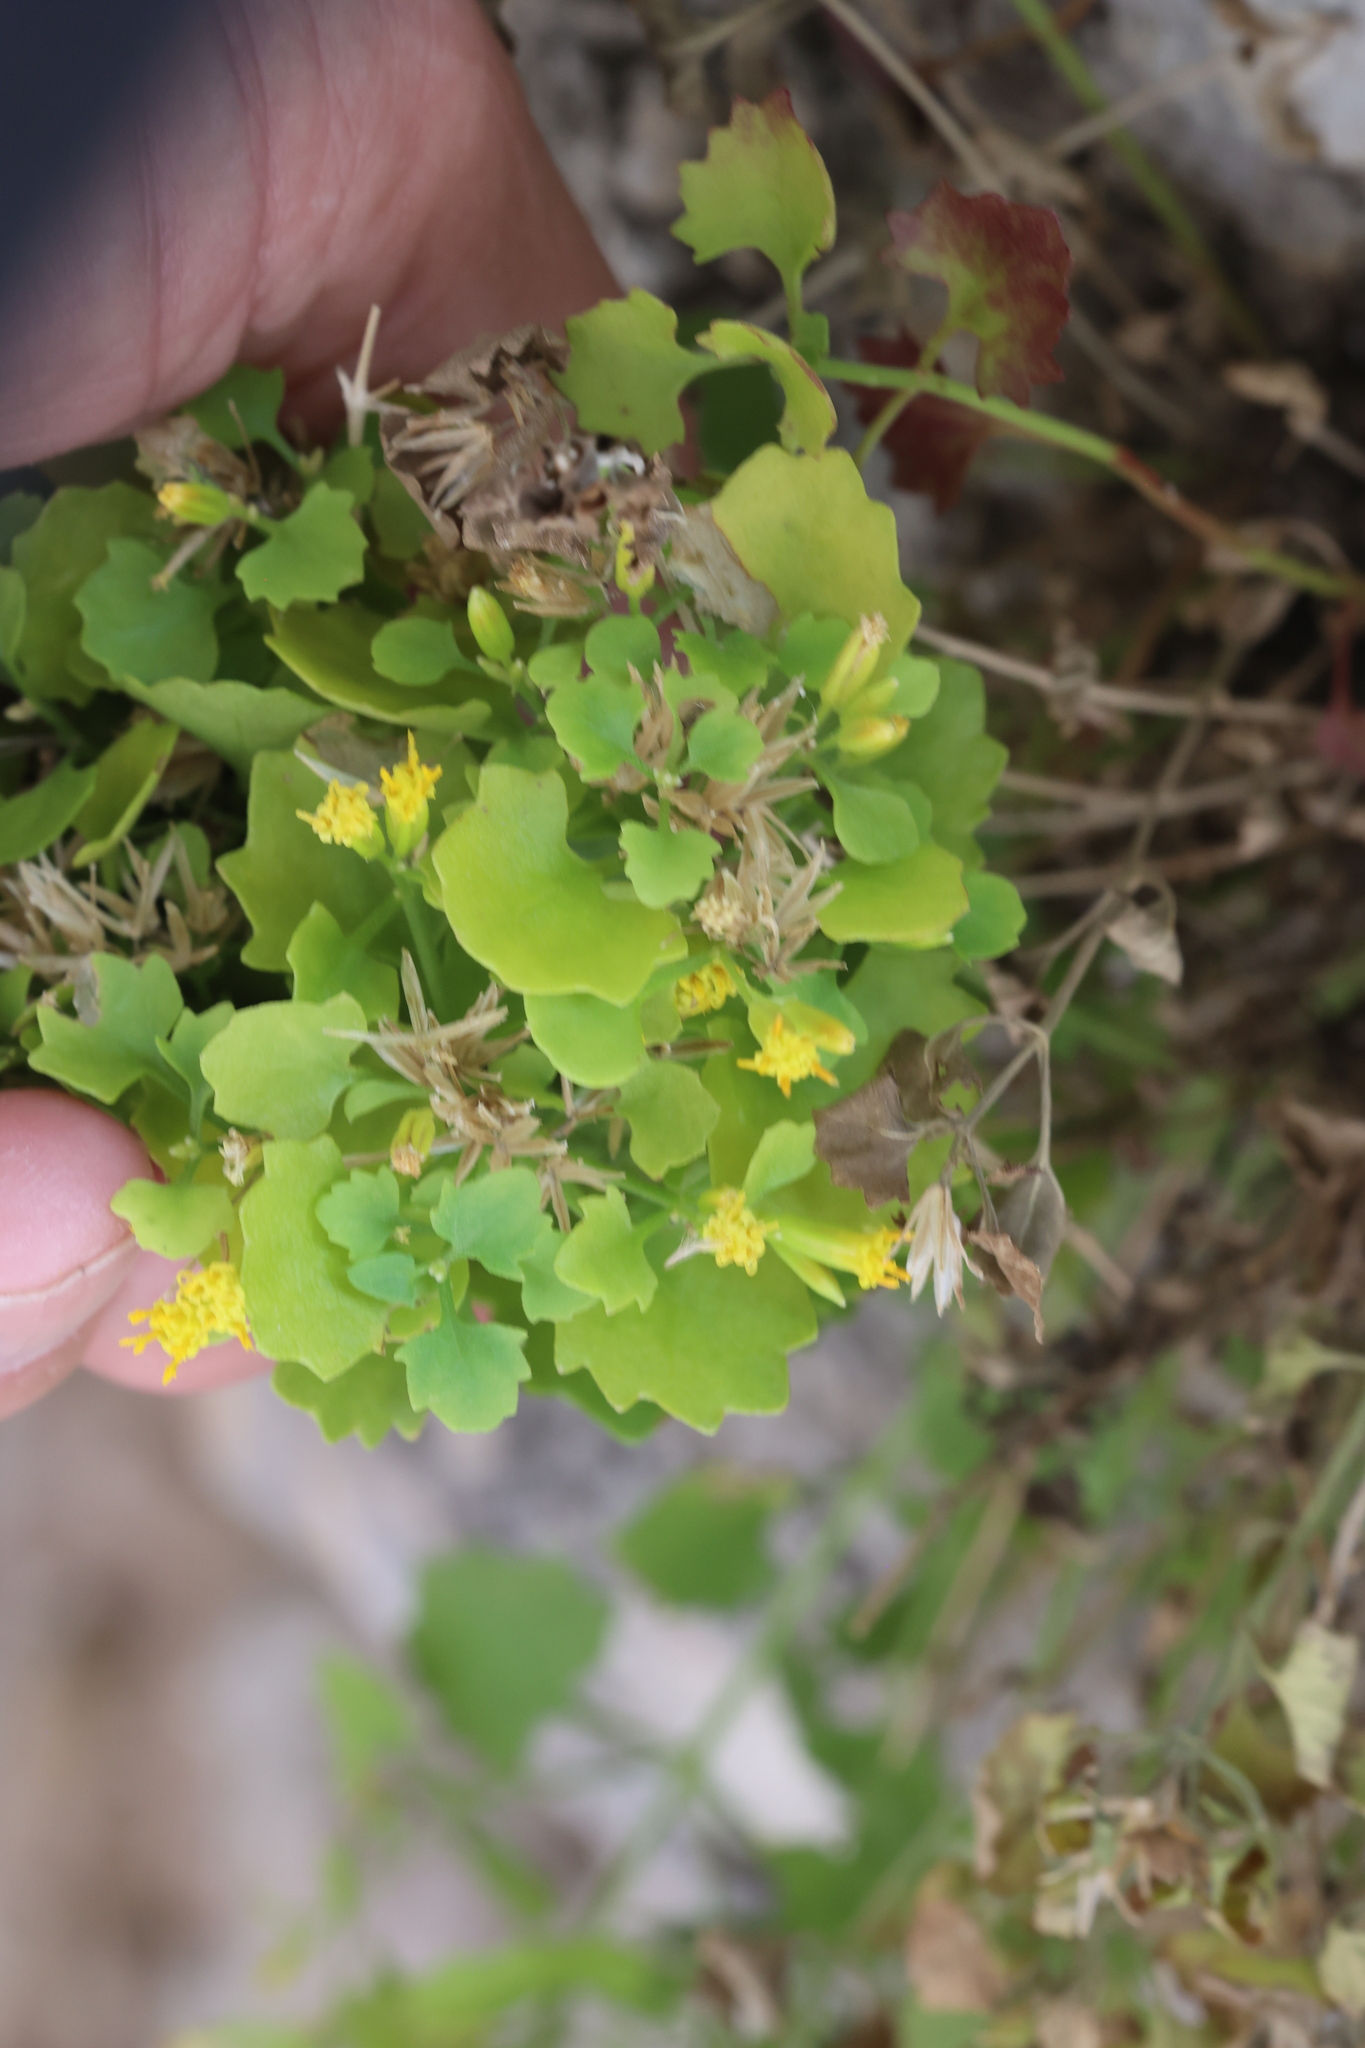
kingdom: Plantae
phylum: Tracheophyta
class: Magnoliopsida
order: Asterales
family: Asteraceae
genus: Laphamia
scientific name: Laphamia quinqueflora
